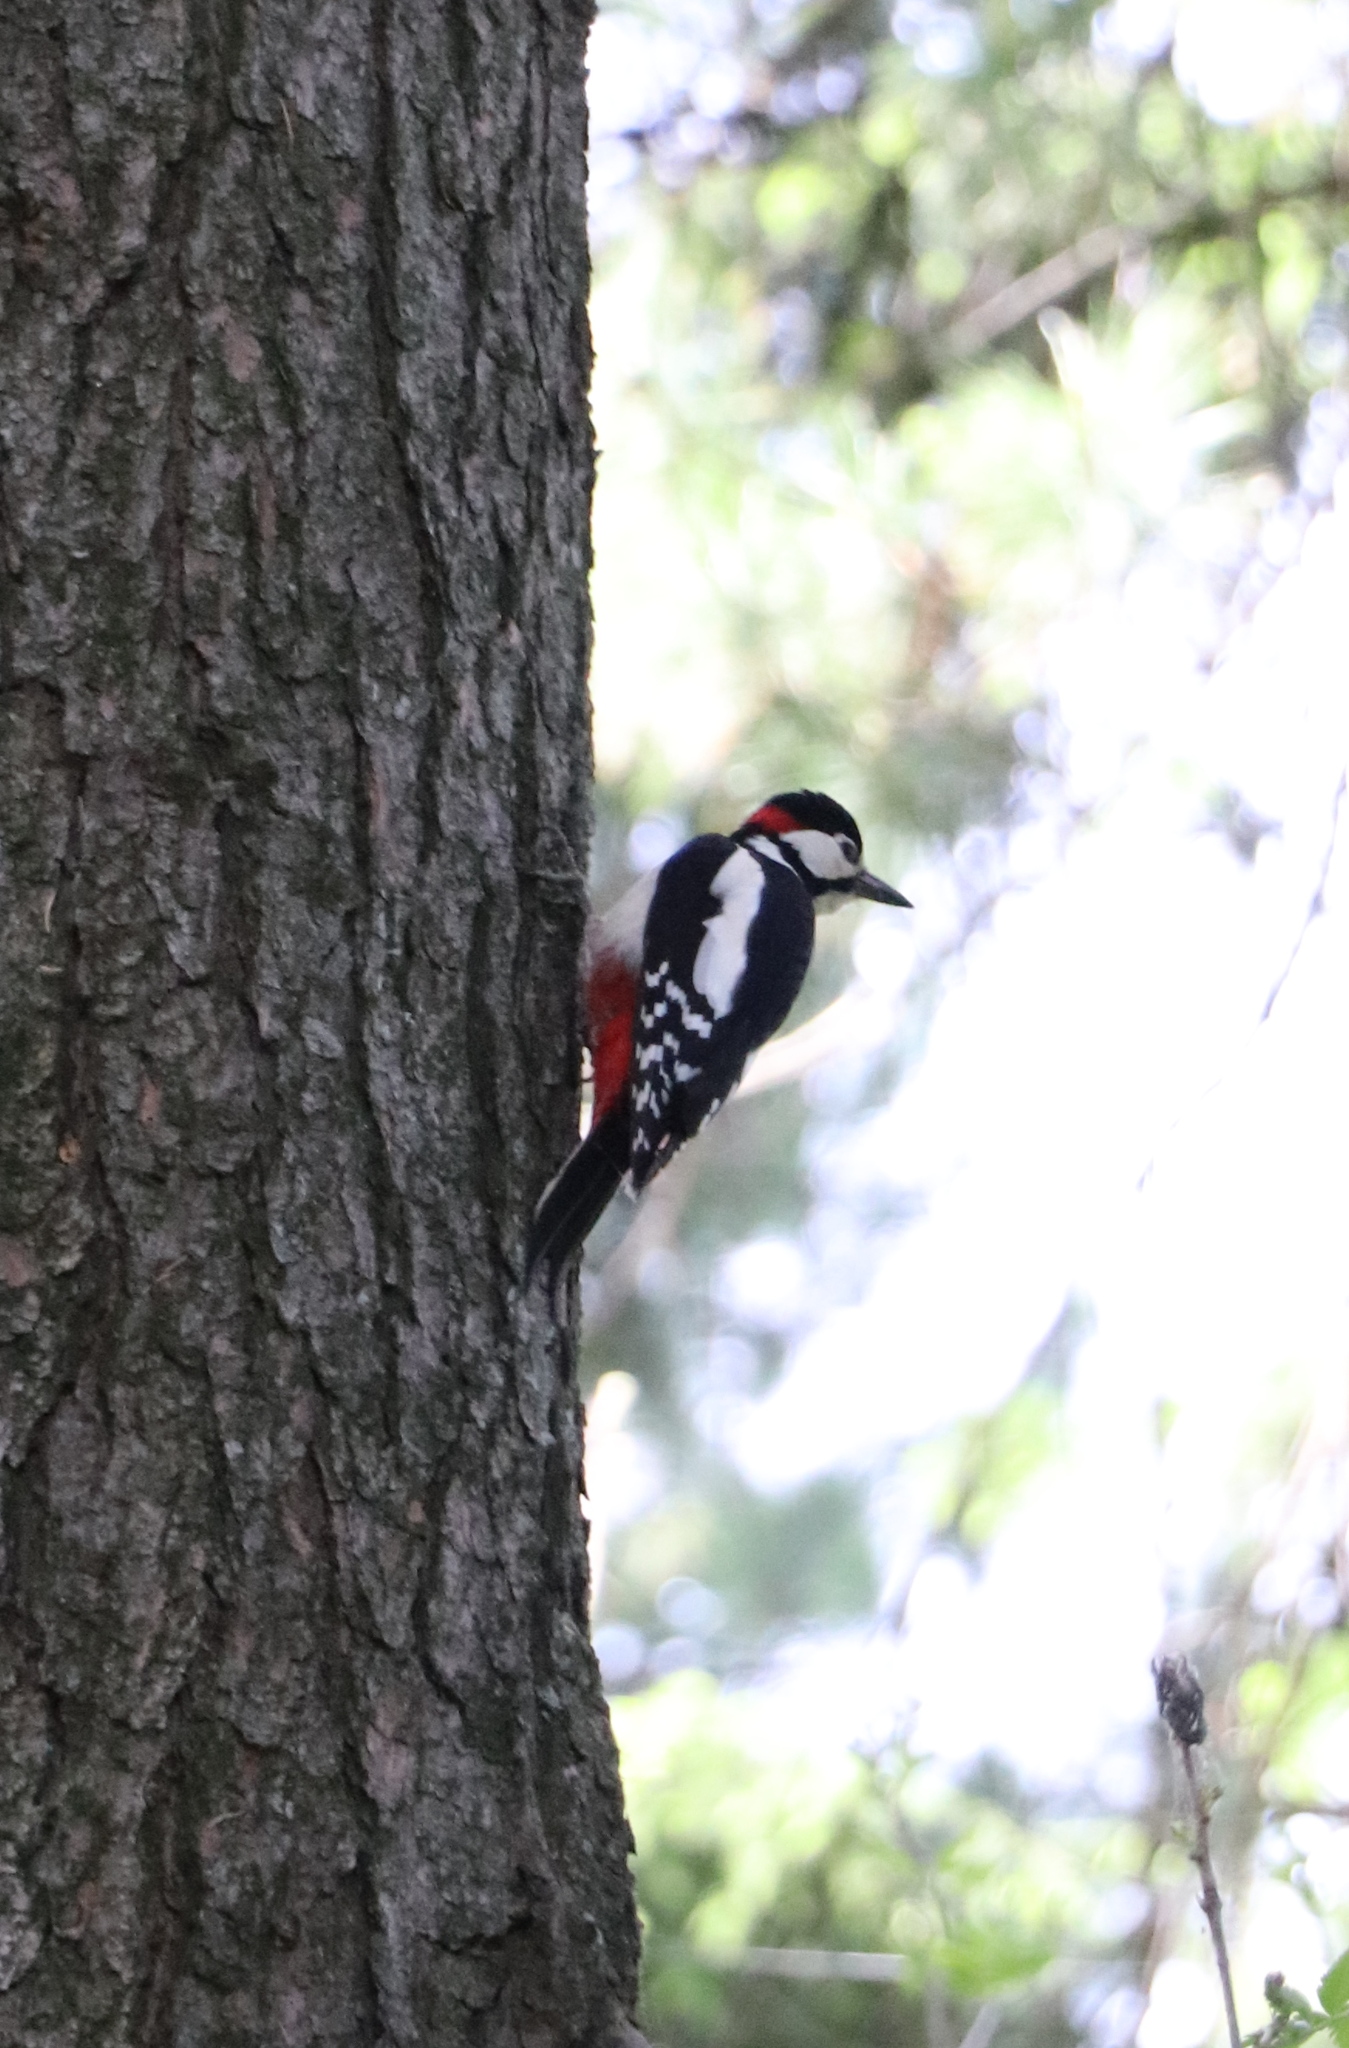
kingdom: Animalia
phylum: Chordata
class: Aves
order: Piciformes
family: Picidae
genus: Dendrocopos
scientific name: Dendrocopos major
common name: Great spotted woodpecker
